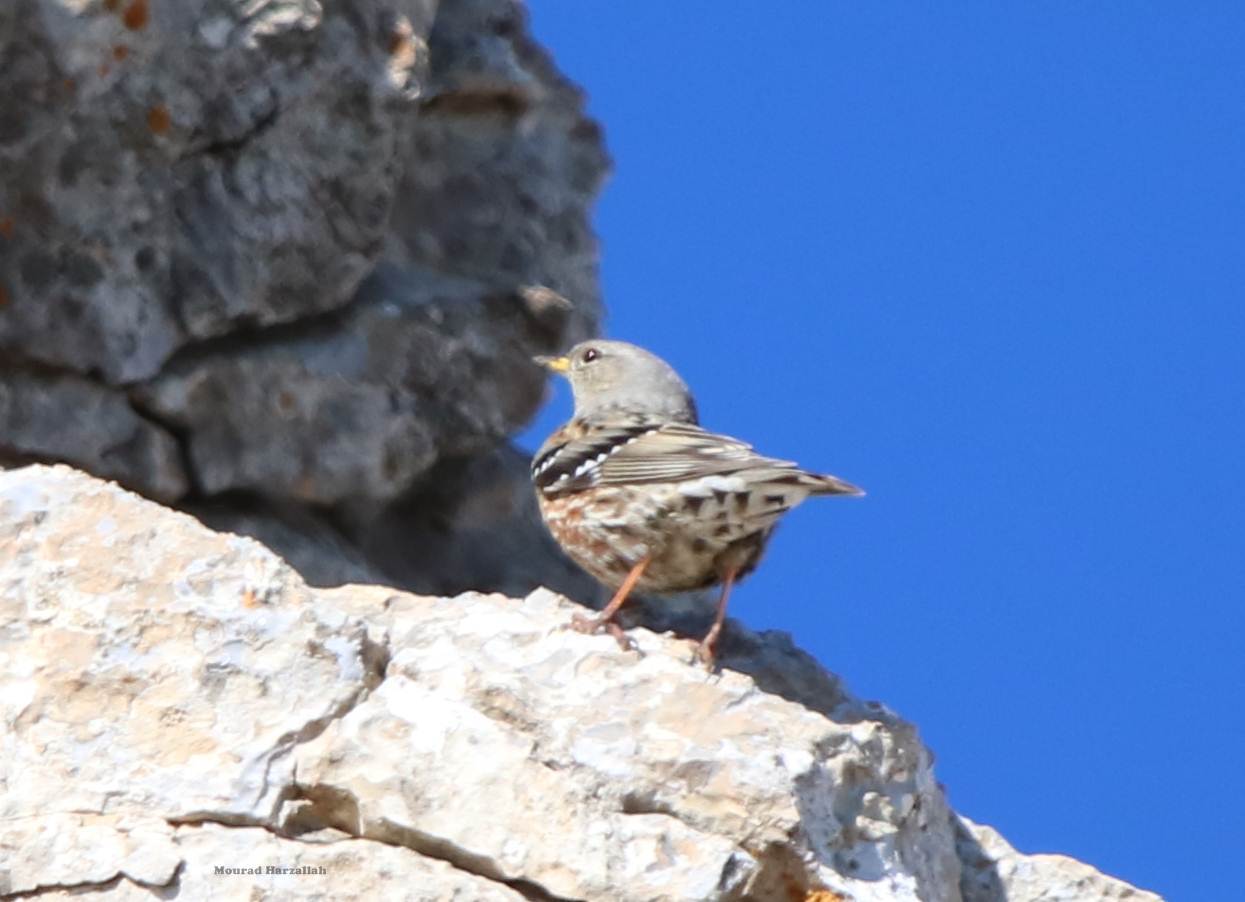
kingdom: Animalia
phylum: Chordata
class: Aves
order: Passeriformes
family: Prunellidae
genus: Prunella
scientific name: Prunella collaris
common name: Alpine accentor
